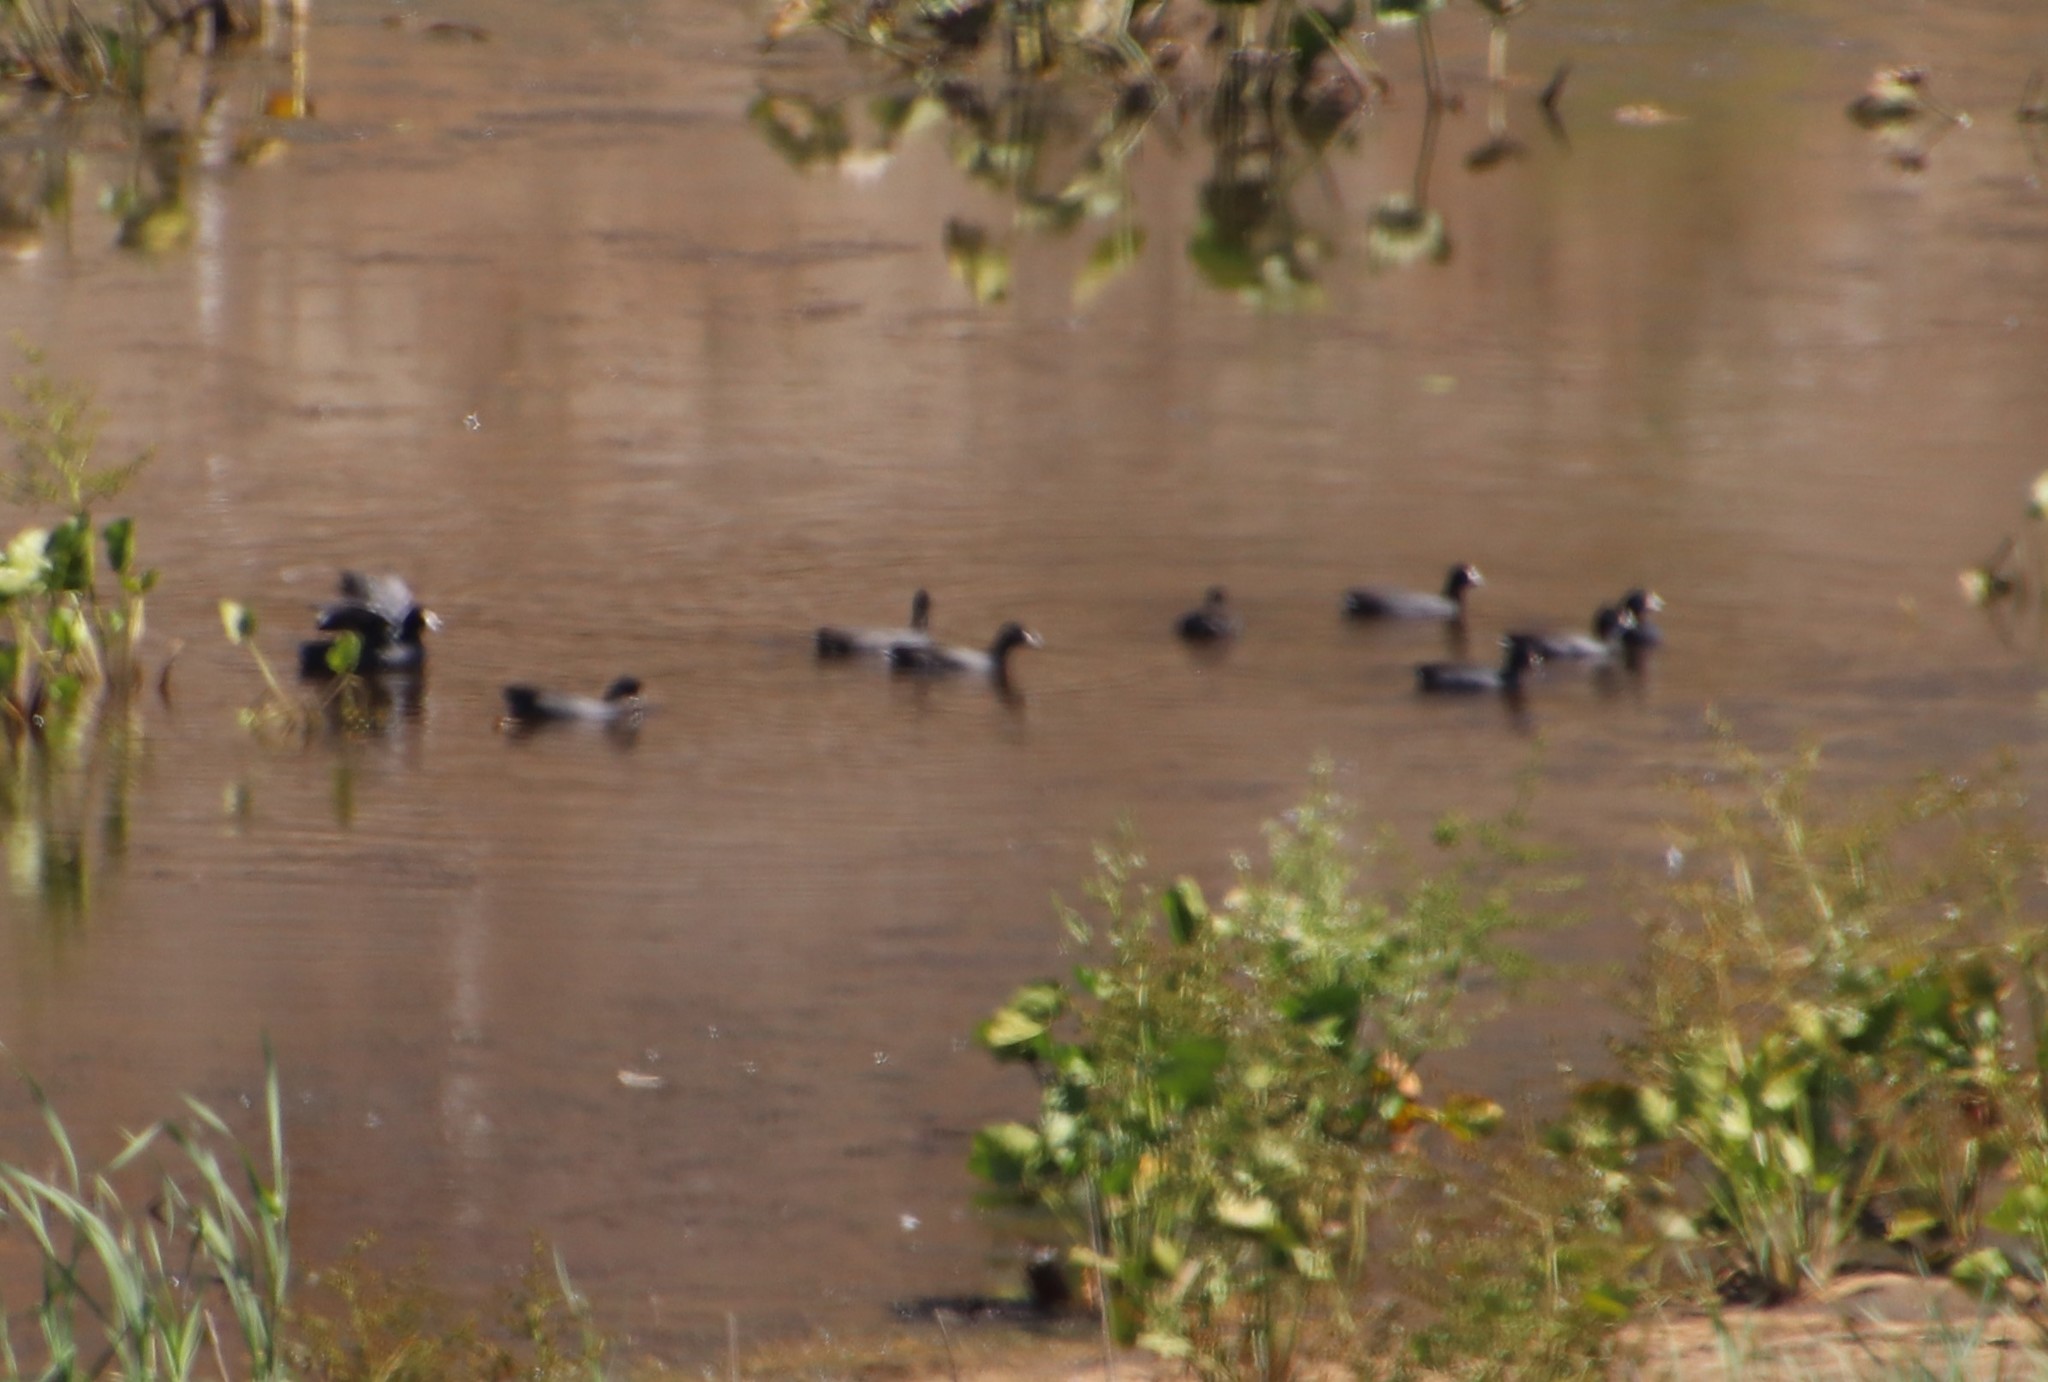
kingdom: Animalia
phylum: Chordata
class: Aves
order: Gruiformes
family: Rallidae
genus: Fulica
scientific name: Fulica americana
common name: American coot
